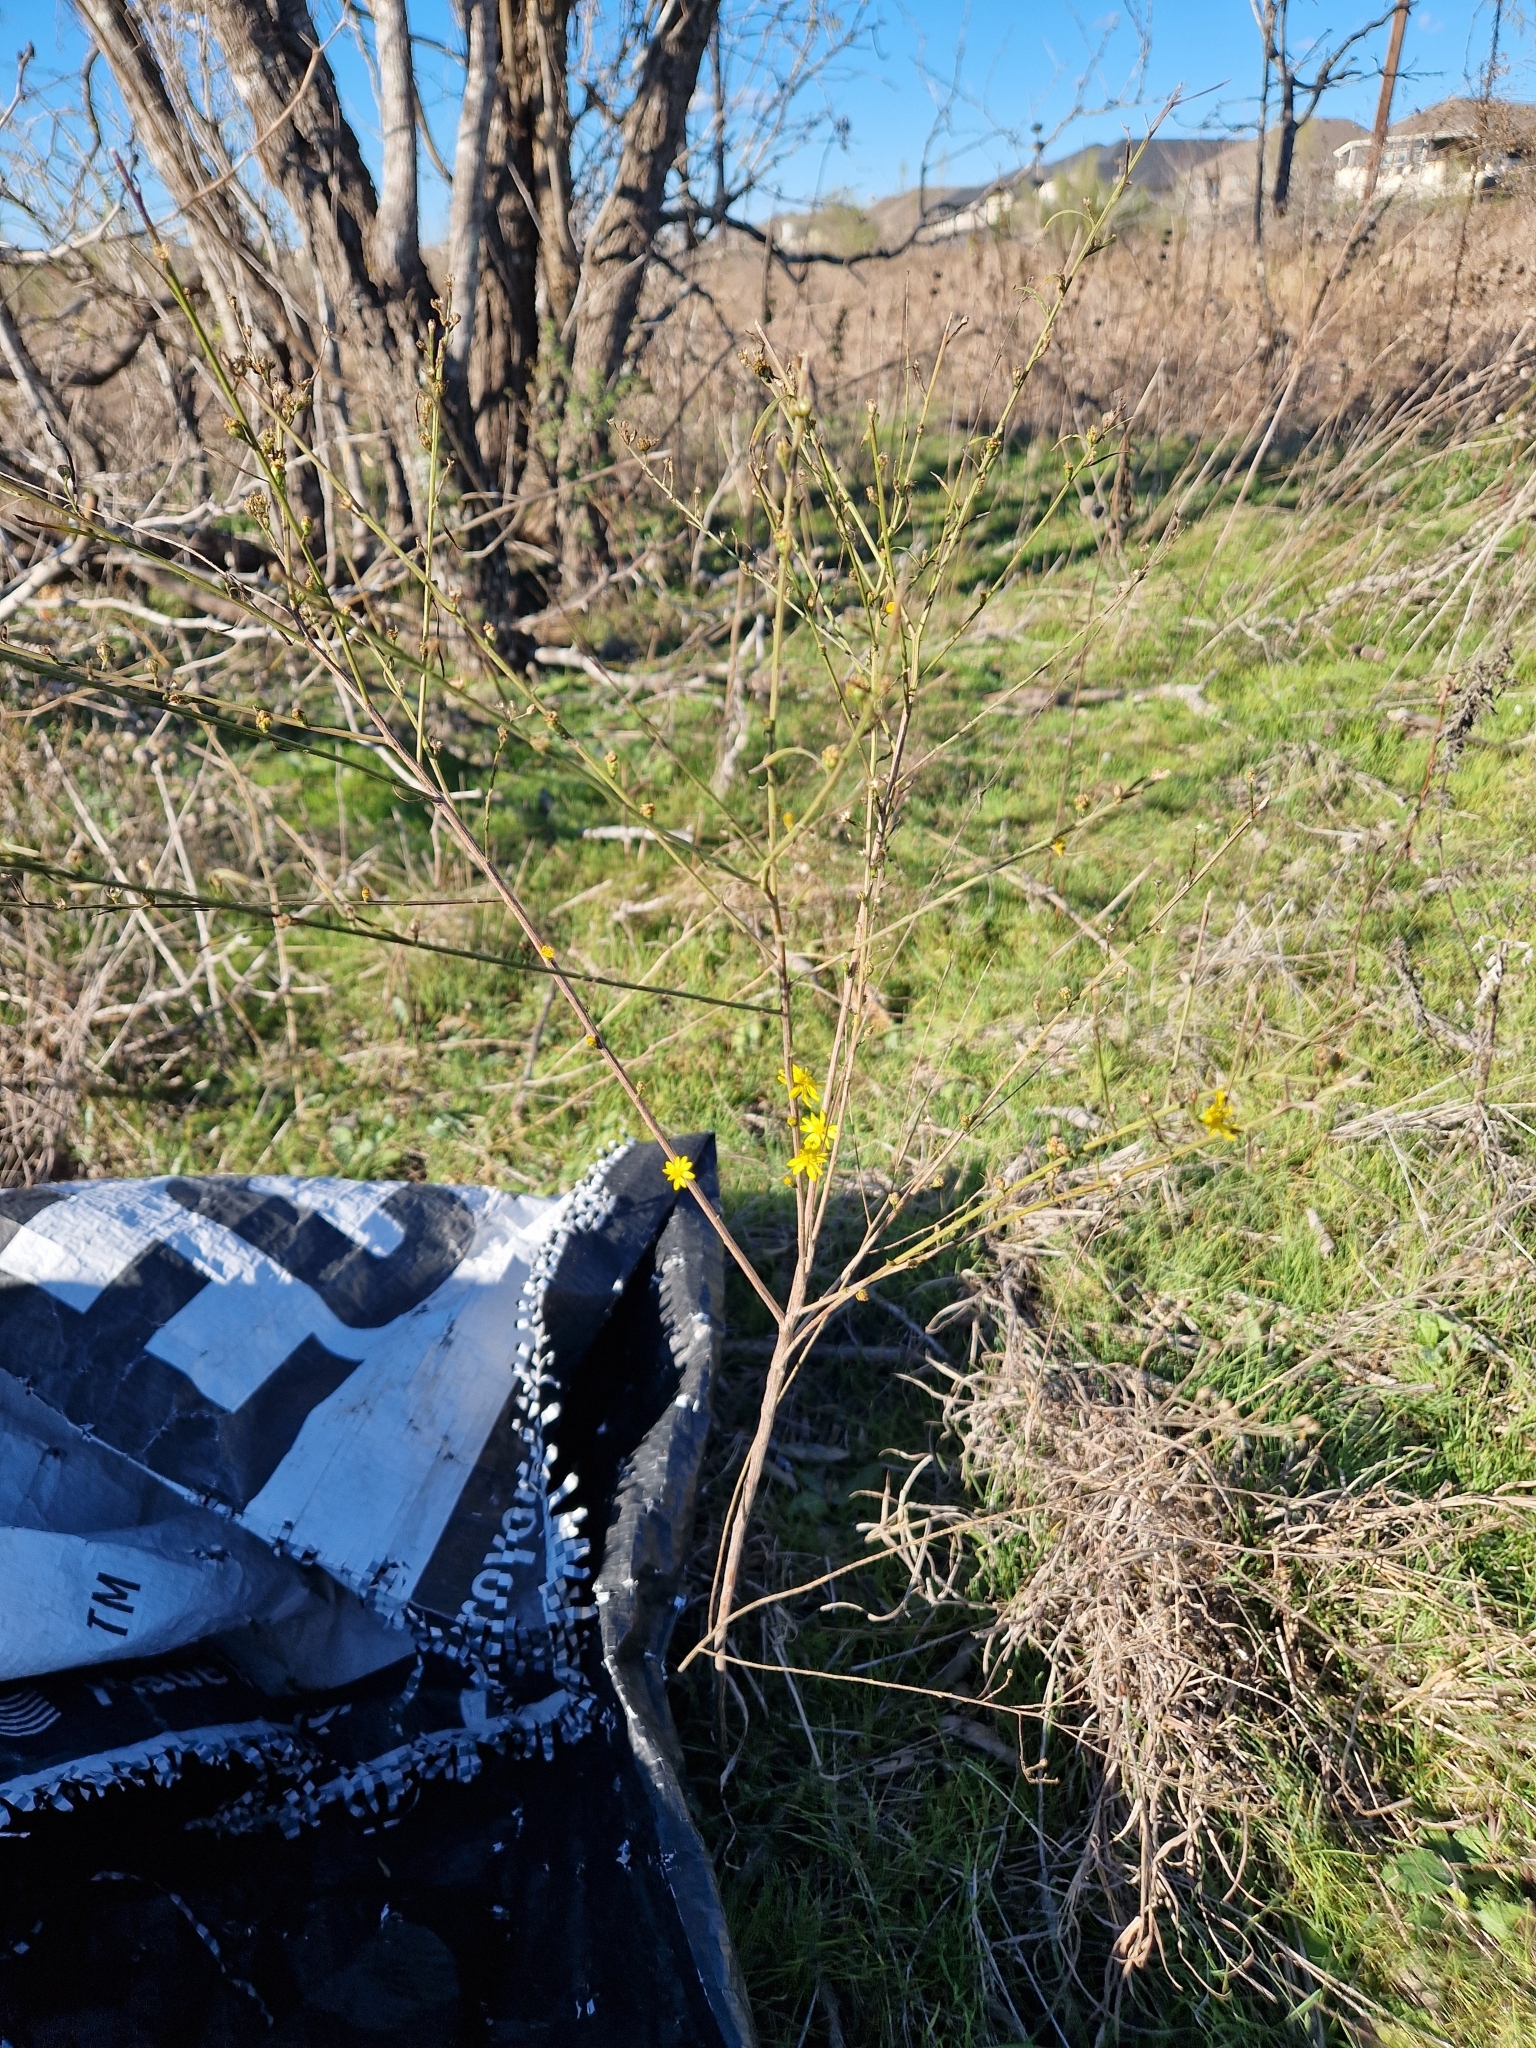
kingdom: Plantae
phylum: Tracheophyta
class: Magnoliopsida
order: Asterales
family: Asteraceae
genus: Gutierrezia
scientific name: Gutierrezia texana
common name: Texas snakeweed
